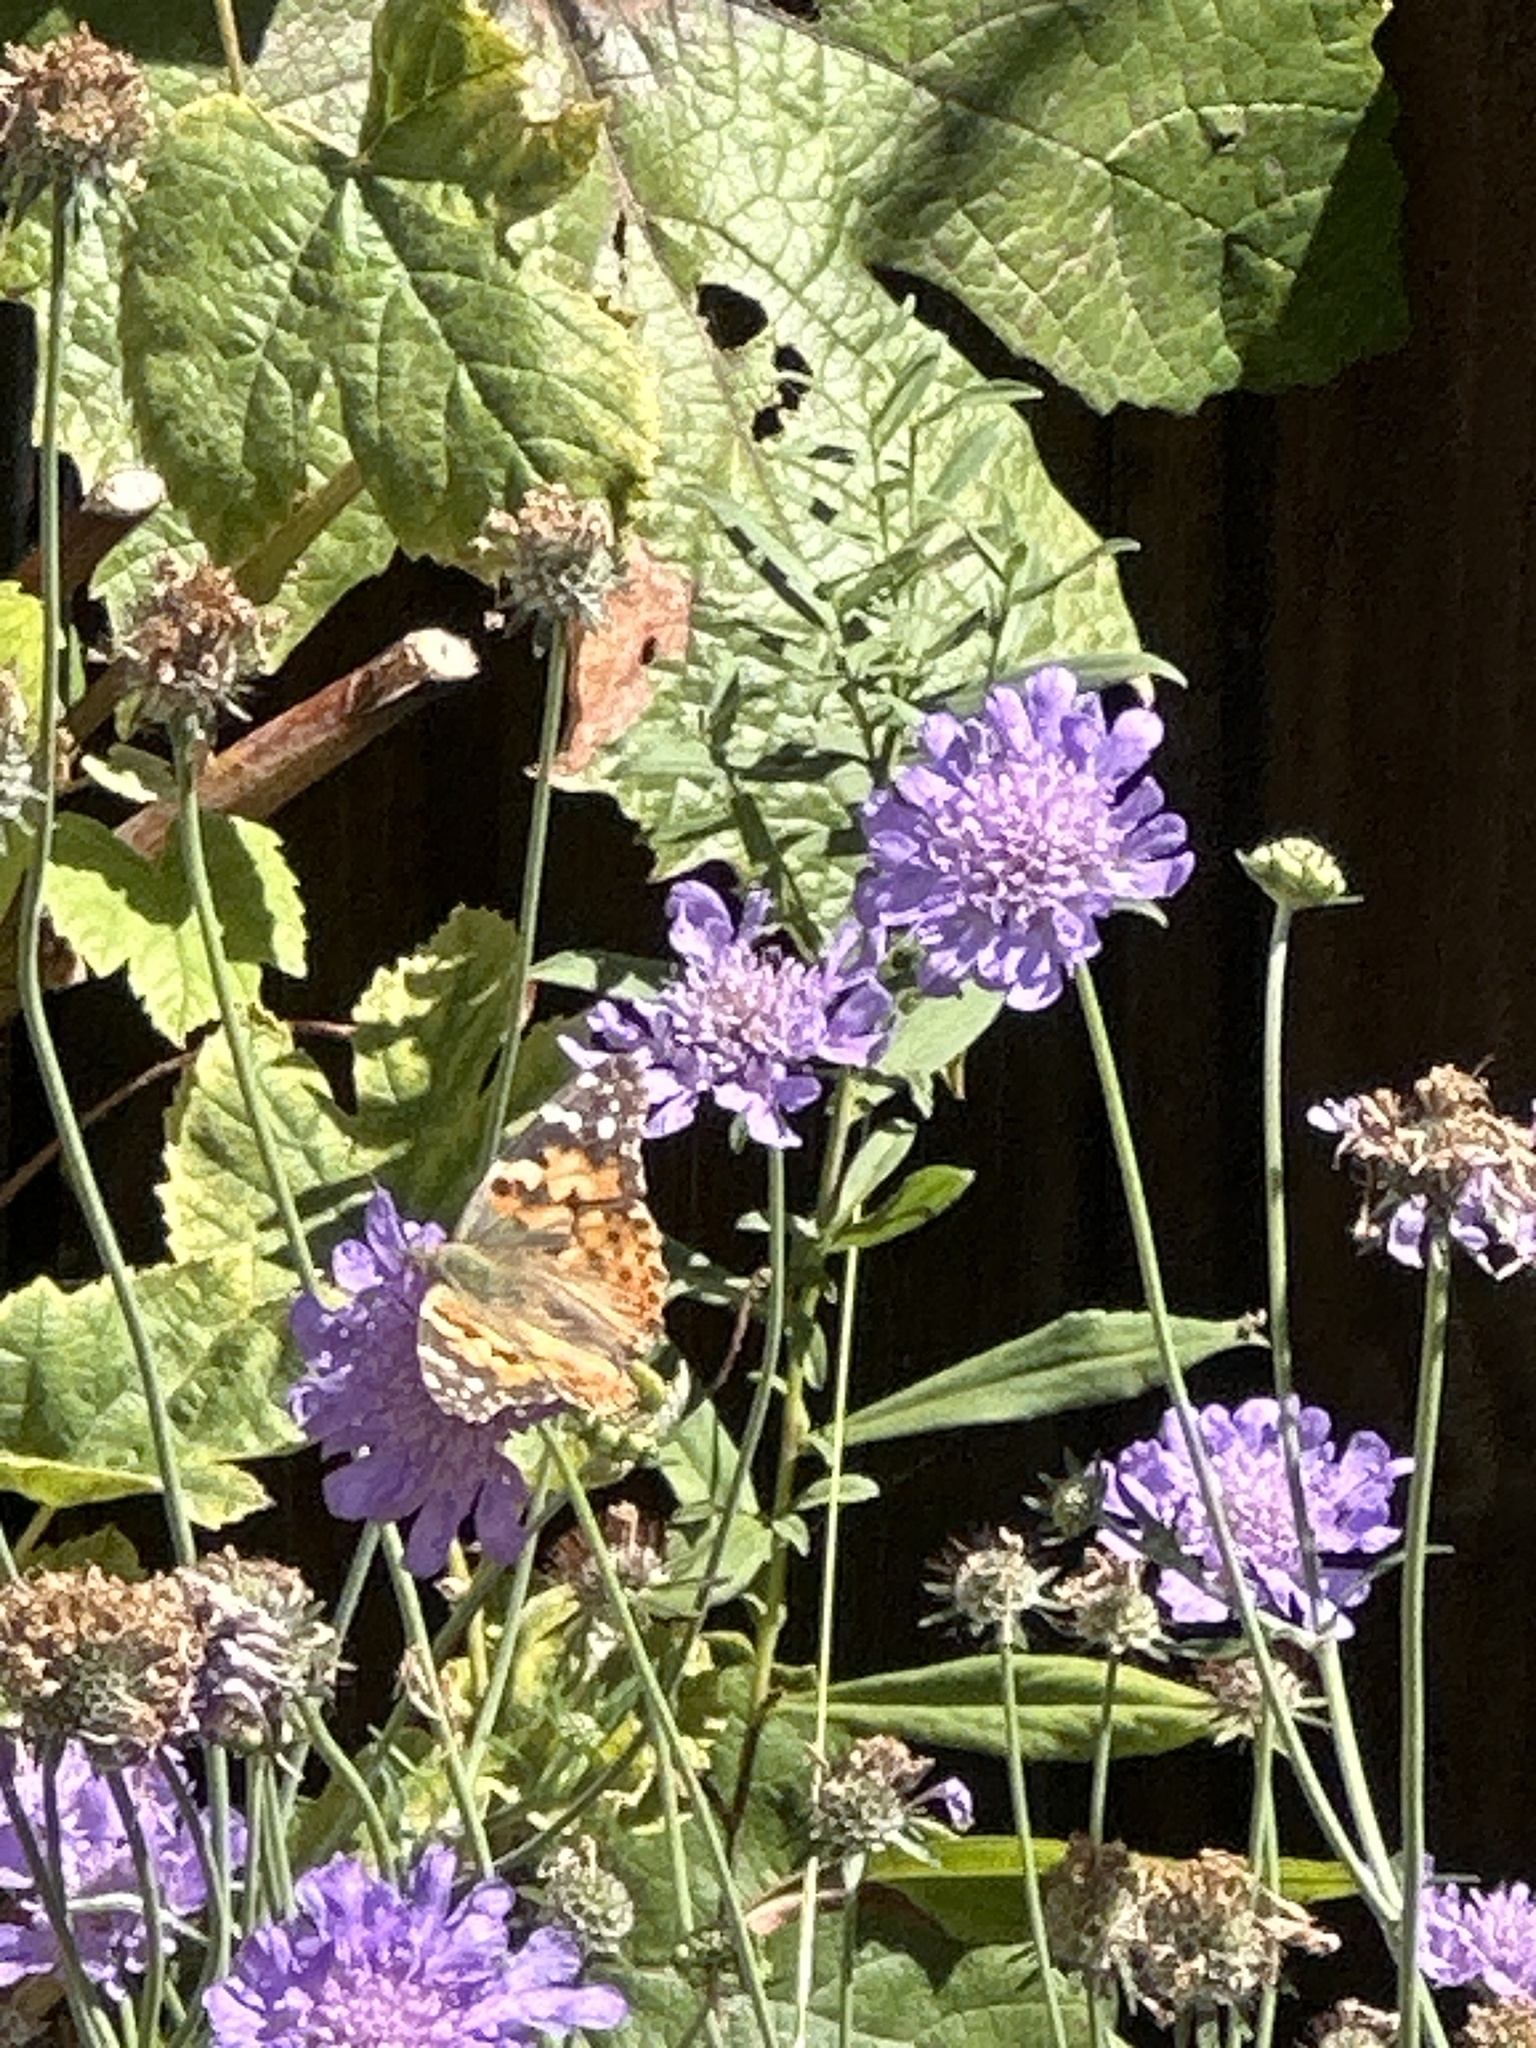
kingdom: Animalia
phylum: Arthropoda
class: Insecta
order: Lepidoptera
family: Nymphalidae
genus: Vanessa
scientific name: Vanessa cardui
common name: Painted lady
